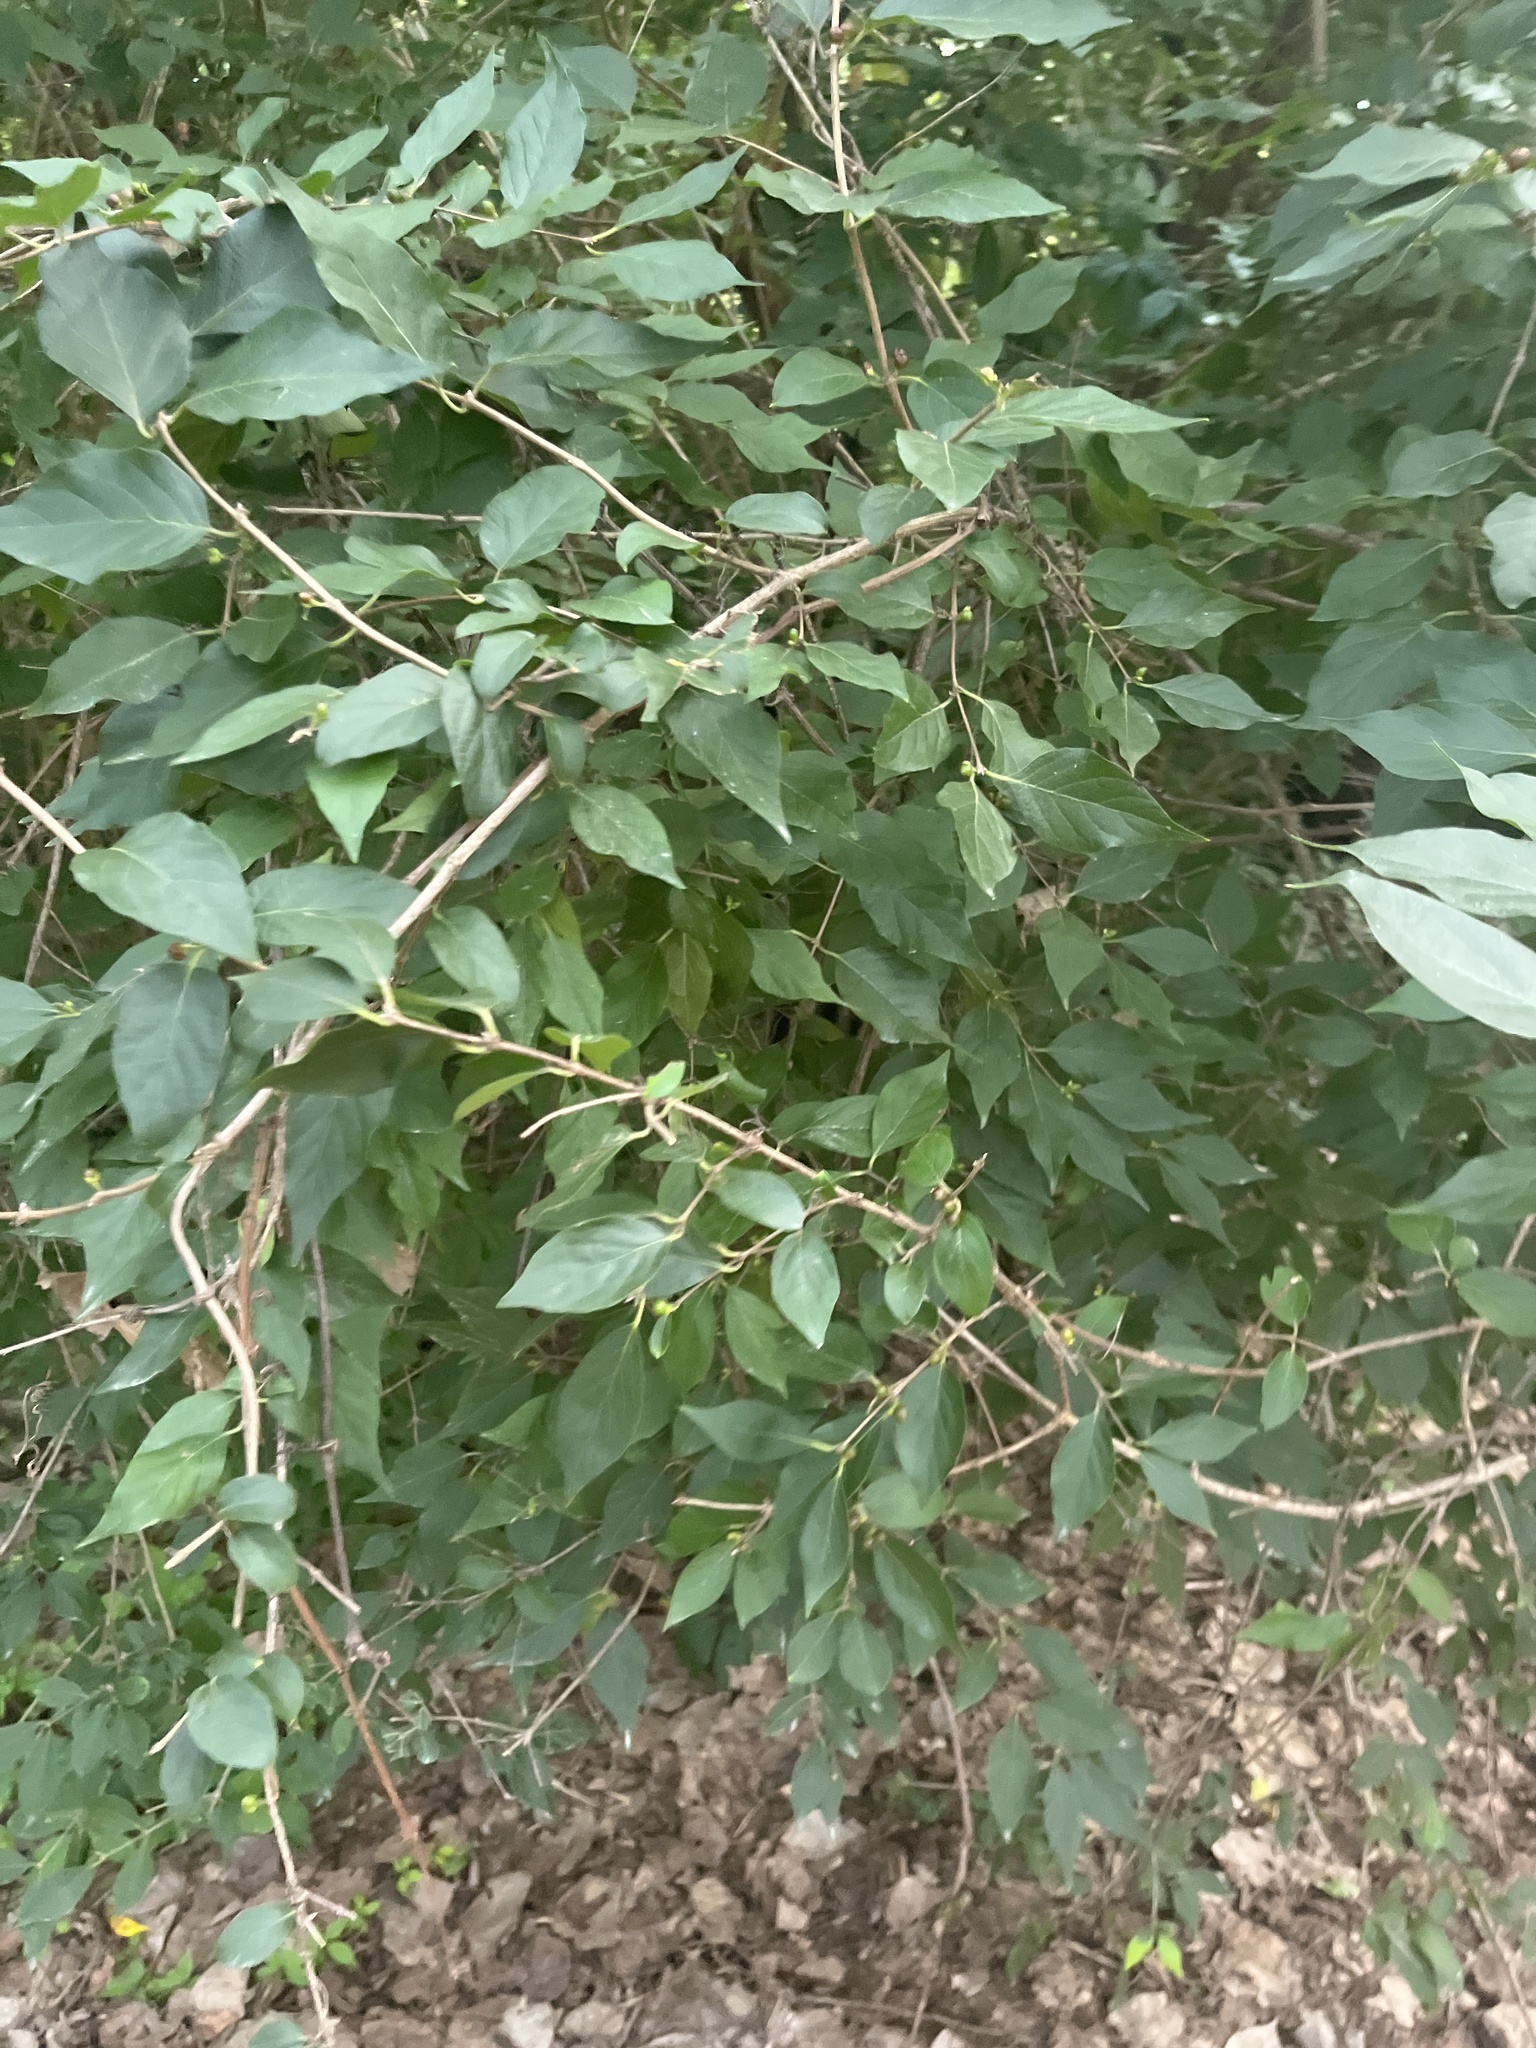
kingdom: Plantae
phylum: Tracheophyta
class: Magnoliopsida
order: Dipsacales
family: Caprifoliaceae
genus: Lonicera
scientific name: Lonicera maackii
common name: Amur honeysuckle
